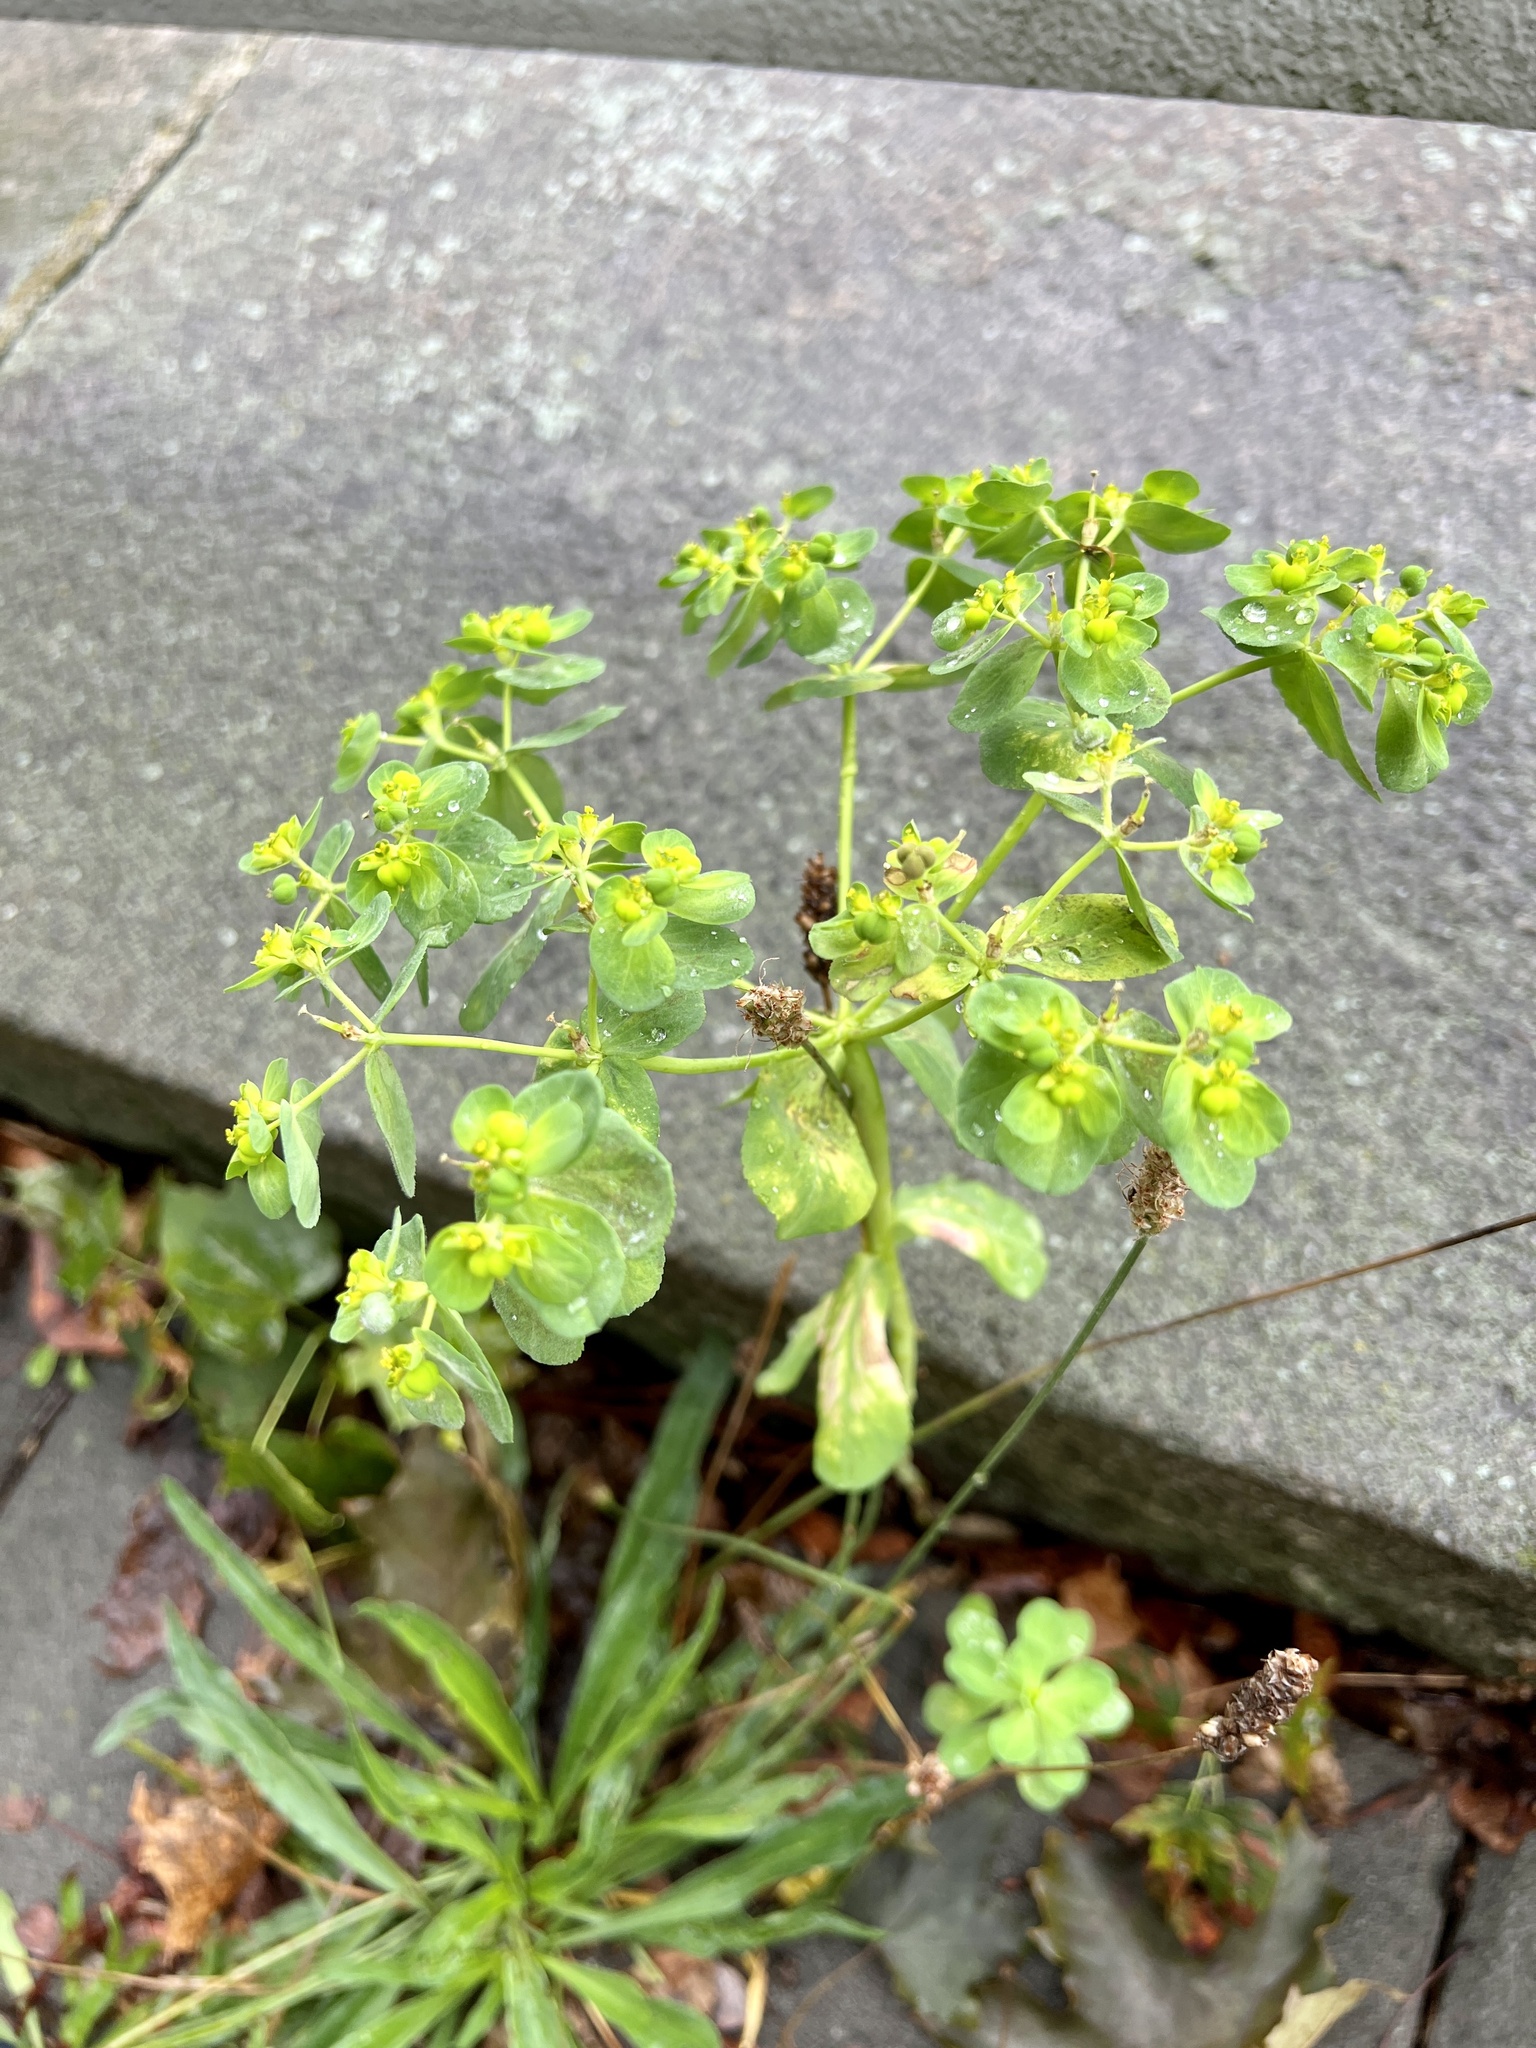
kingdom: Plantae
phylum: Tracheophyta
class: Magnoliopsida
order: Malpighiales
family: Euphorbiaceae
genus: Euphorbia
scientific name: Euphorbia helioscopia
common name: Sun spurge
